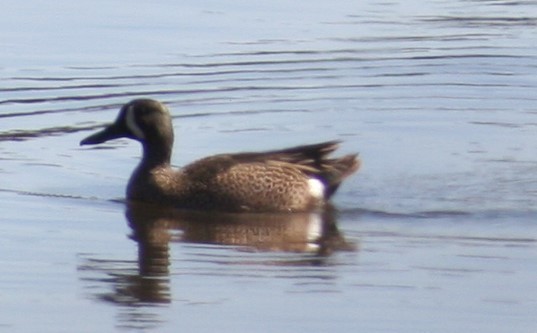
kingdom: Animalia
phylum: Chordata
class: Aves
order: Anseriformes
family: Anatidae
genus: Spatula
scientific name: Spatula discors
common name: Blue-winged teal
